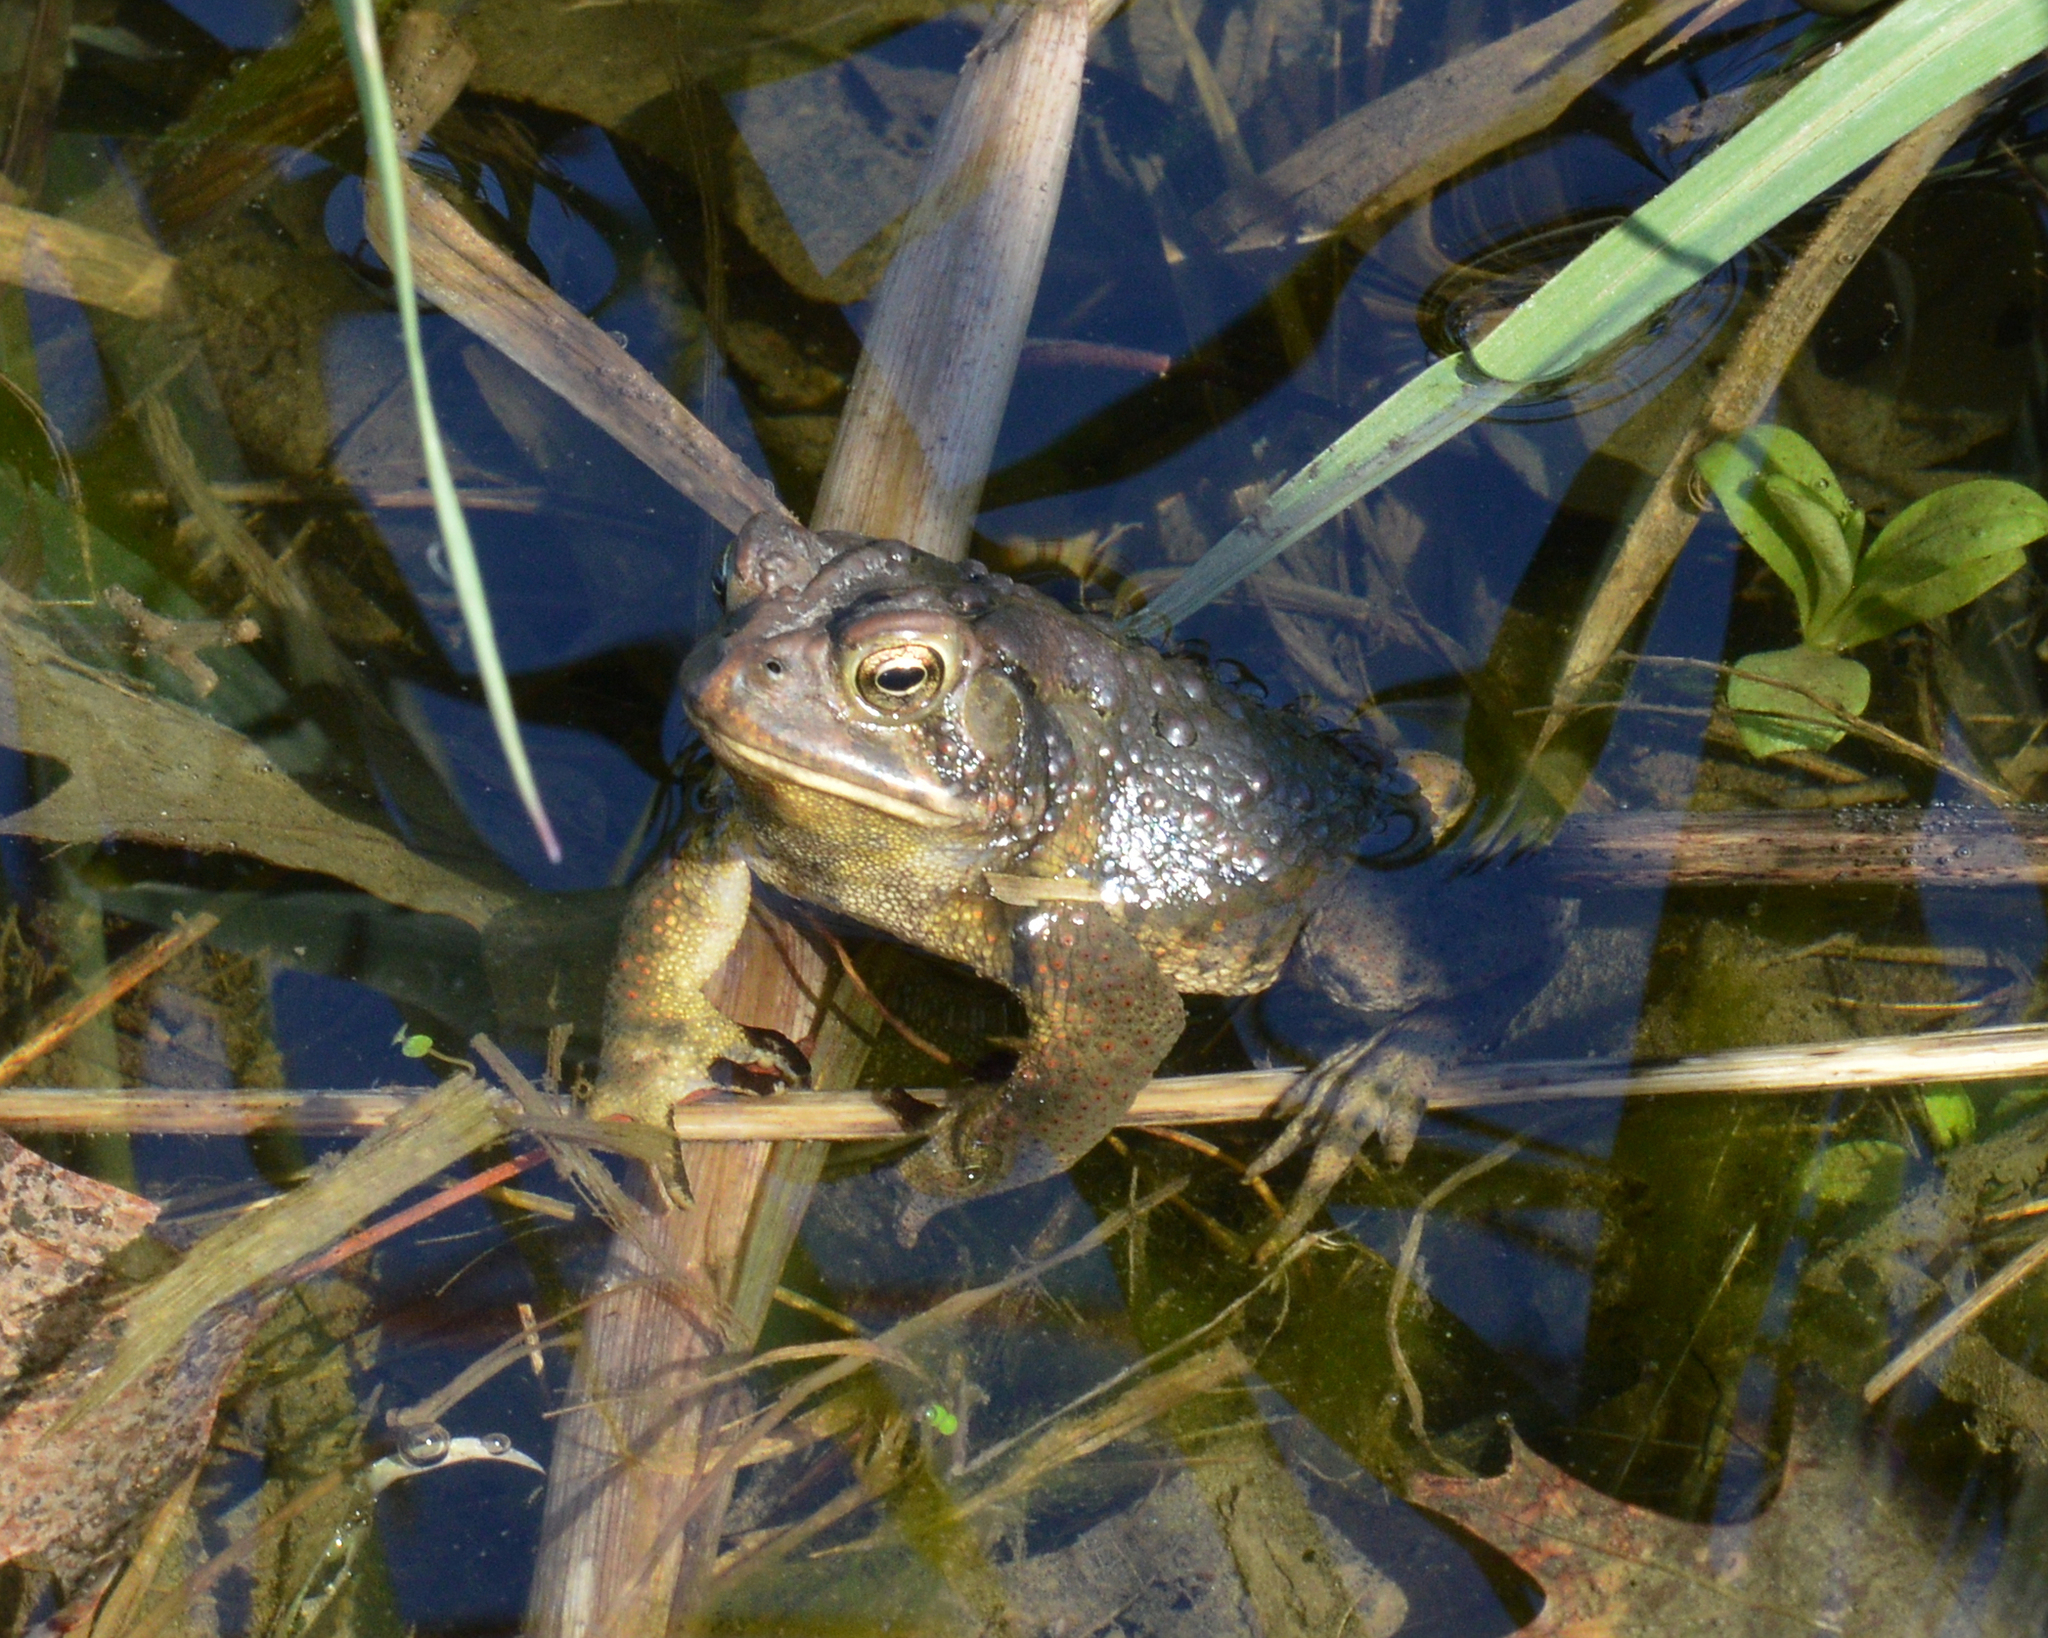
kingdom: Animalia
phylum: Chordata
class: Amphibia
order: Anura
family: Bufonidae
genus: Anaxyrus
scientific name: Anaxyrus americanus
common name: American toad
